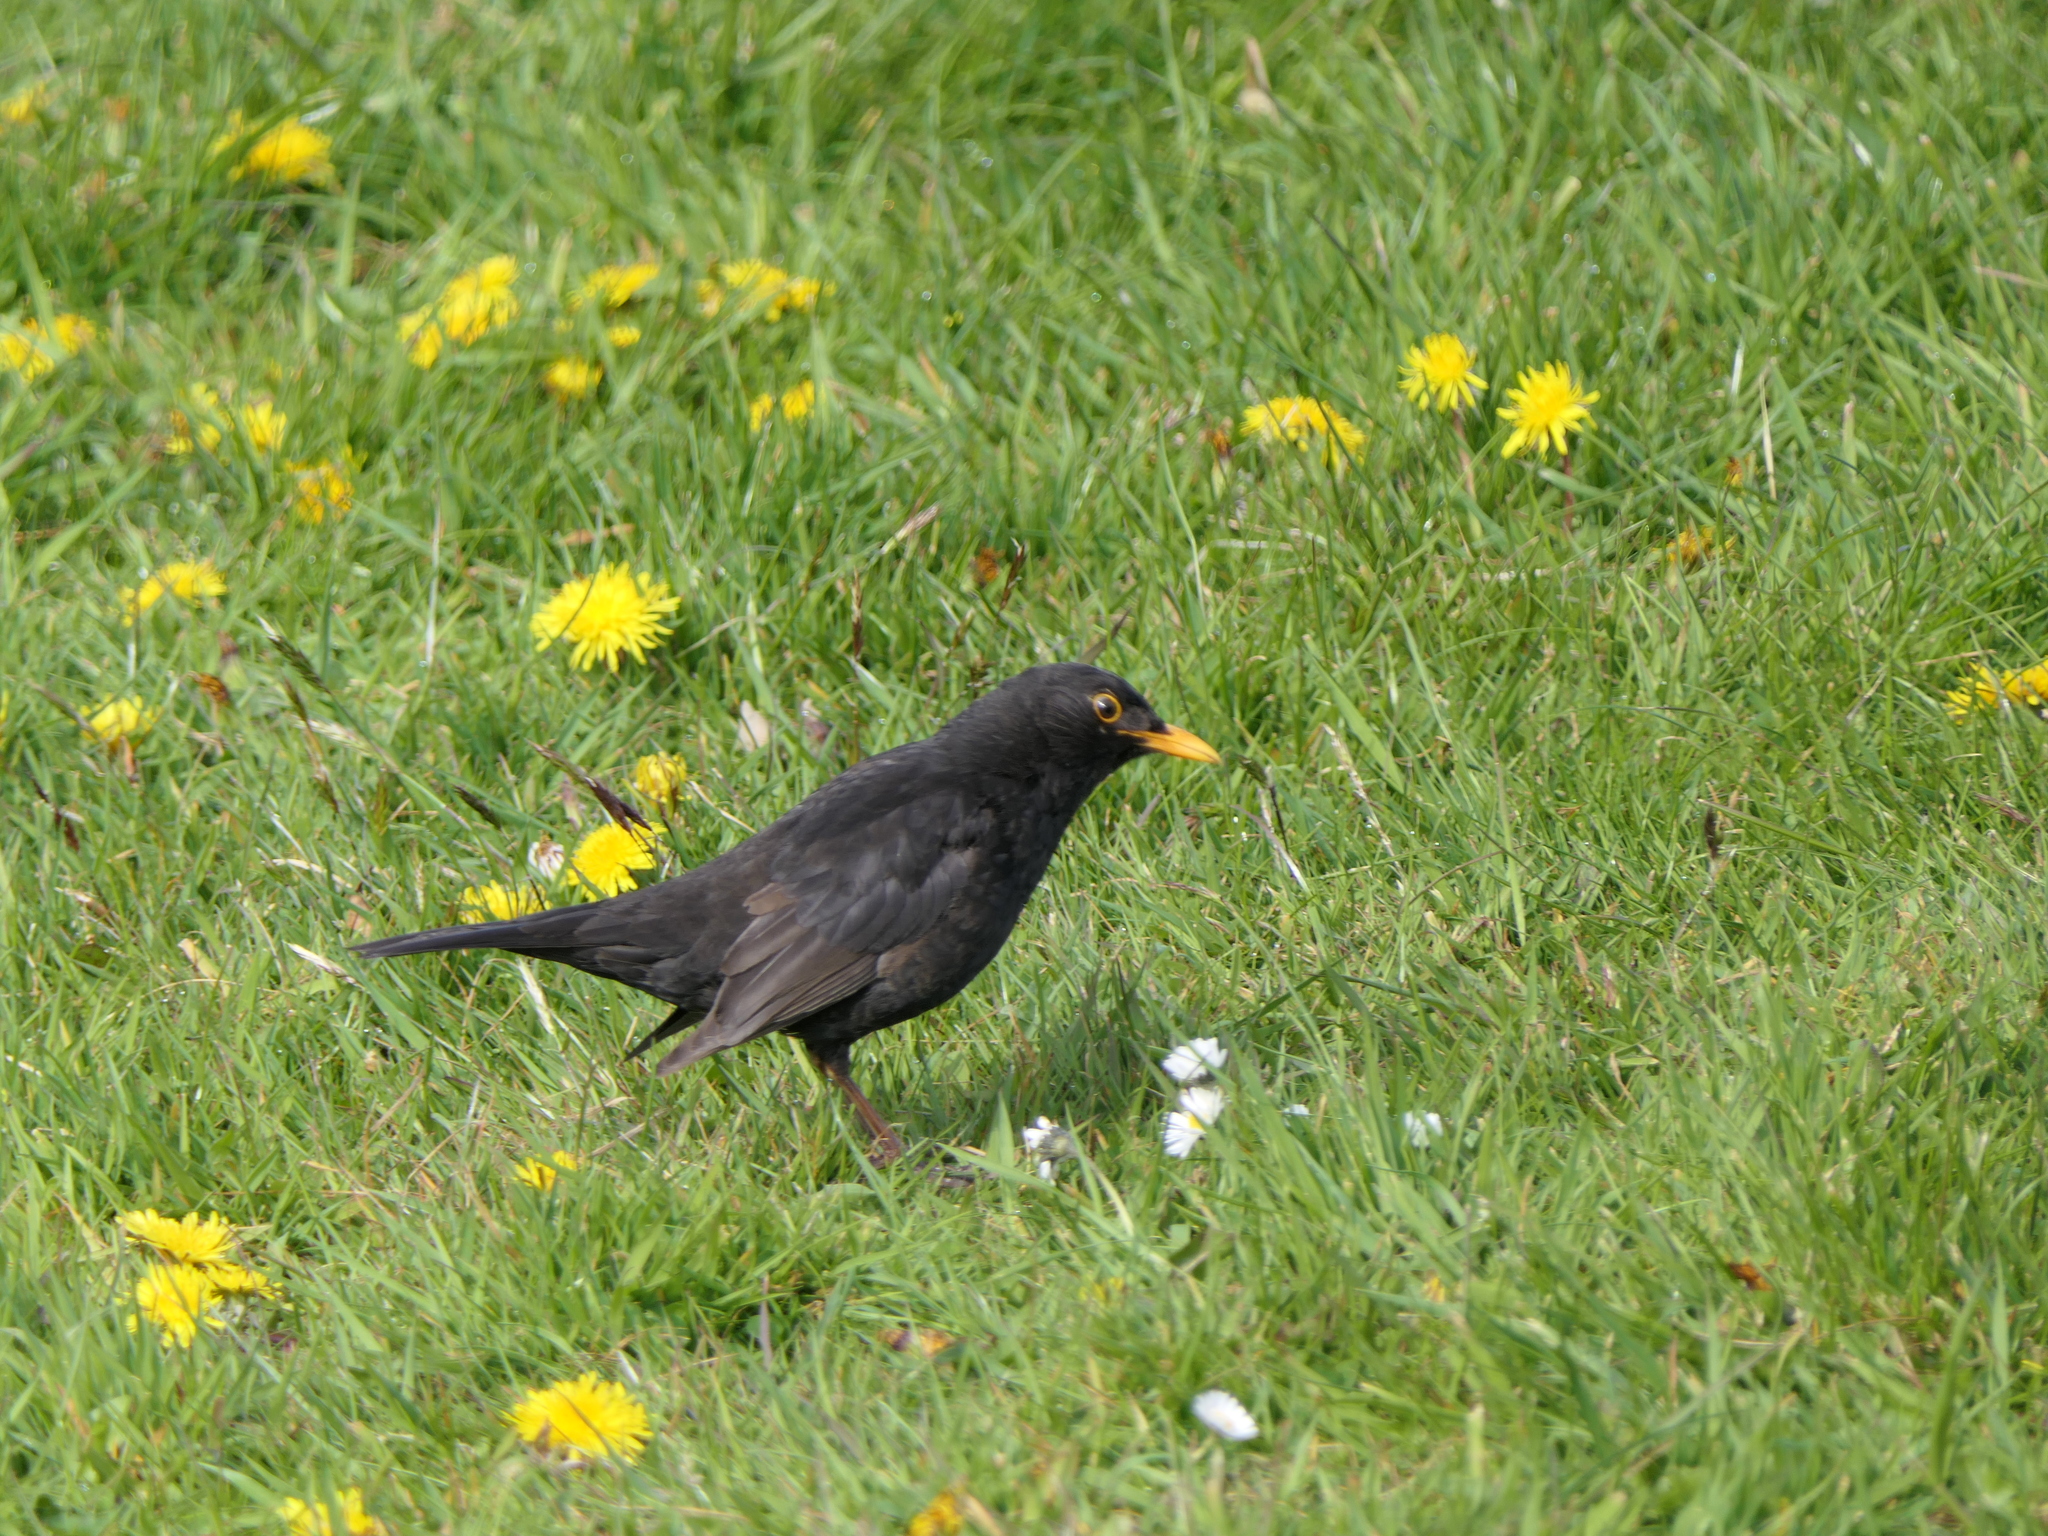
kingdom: Animalia
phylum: Chordata
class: Aves
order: Passeriformes
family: Turdidae
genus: Turdus
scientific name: Turdus merula
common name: Common blackbird
